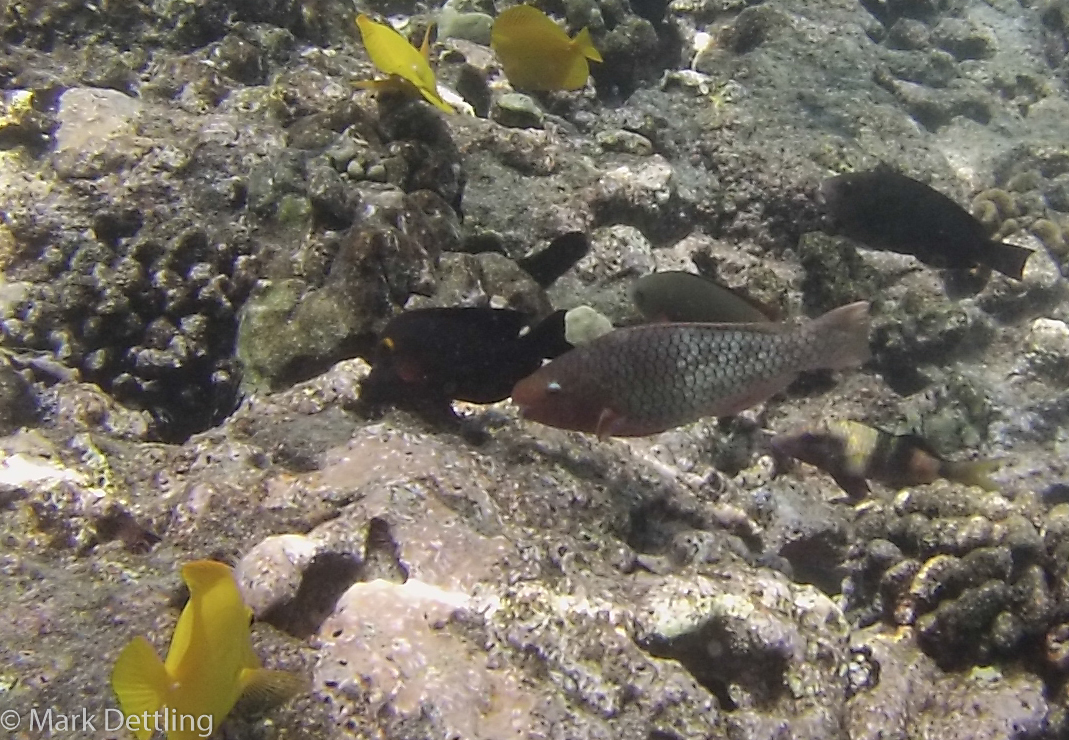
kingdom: Animalia
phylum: Chordata
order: Perciformes
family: Scaridae
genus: Scarus
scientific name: Scarus rubroviolaceus
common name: Ember parrotfish
